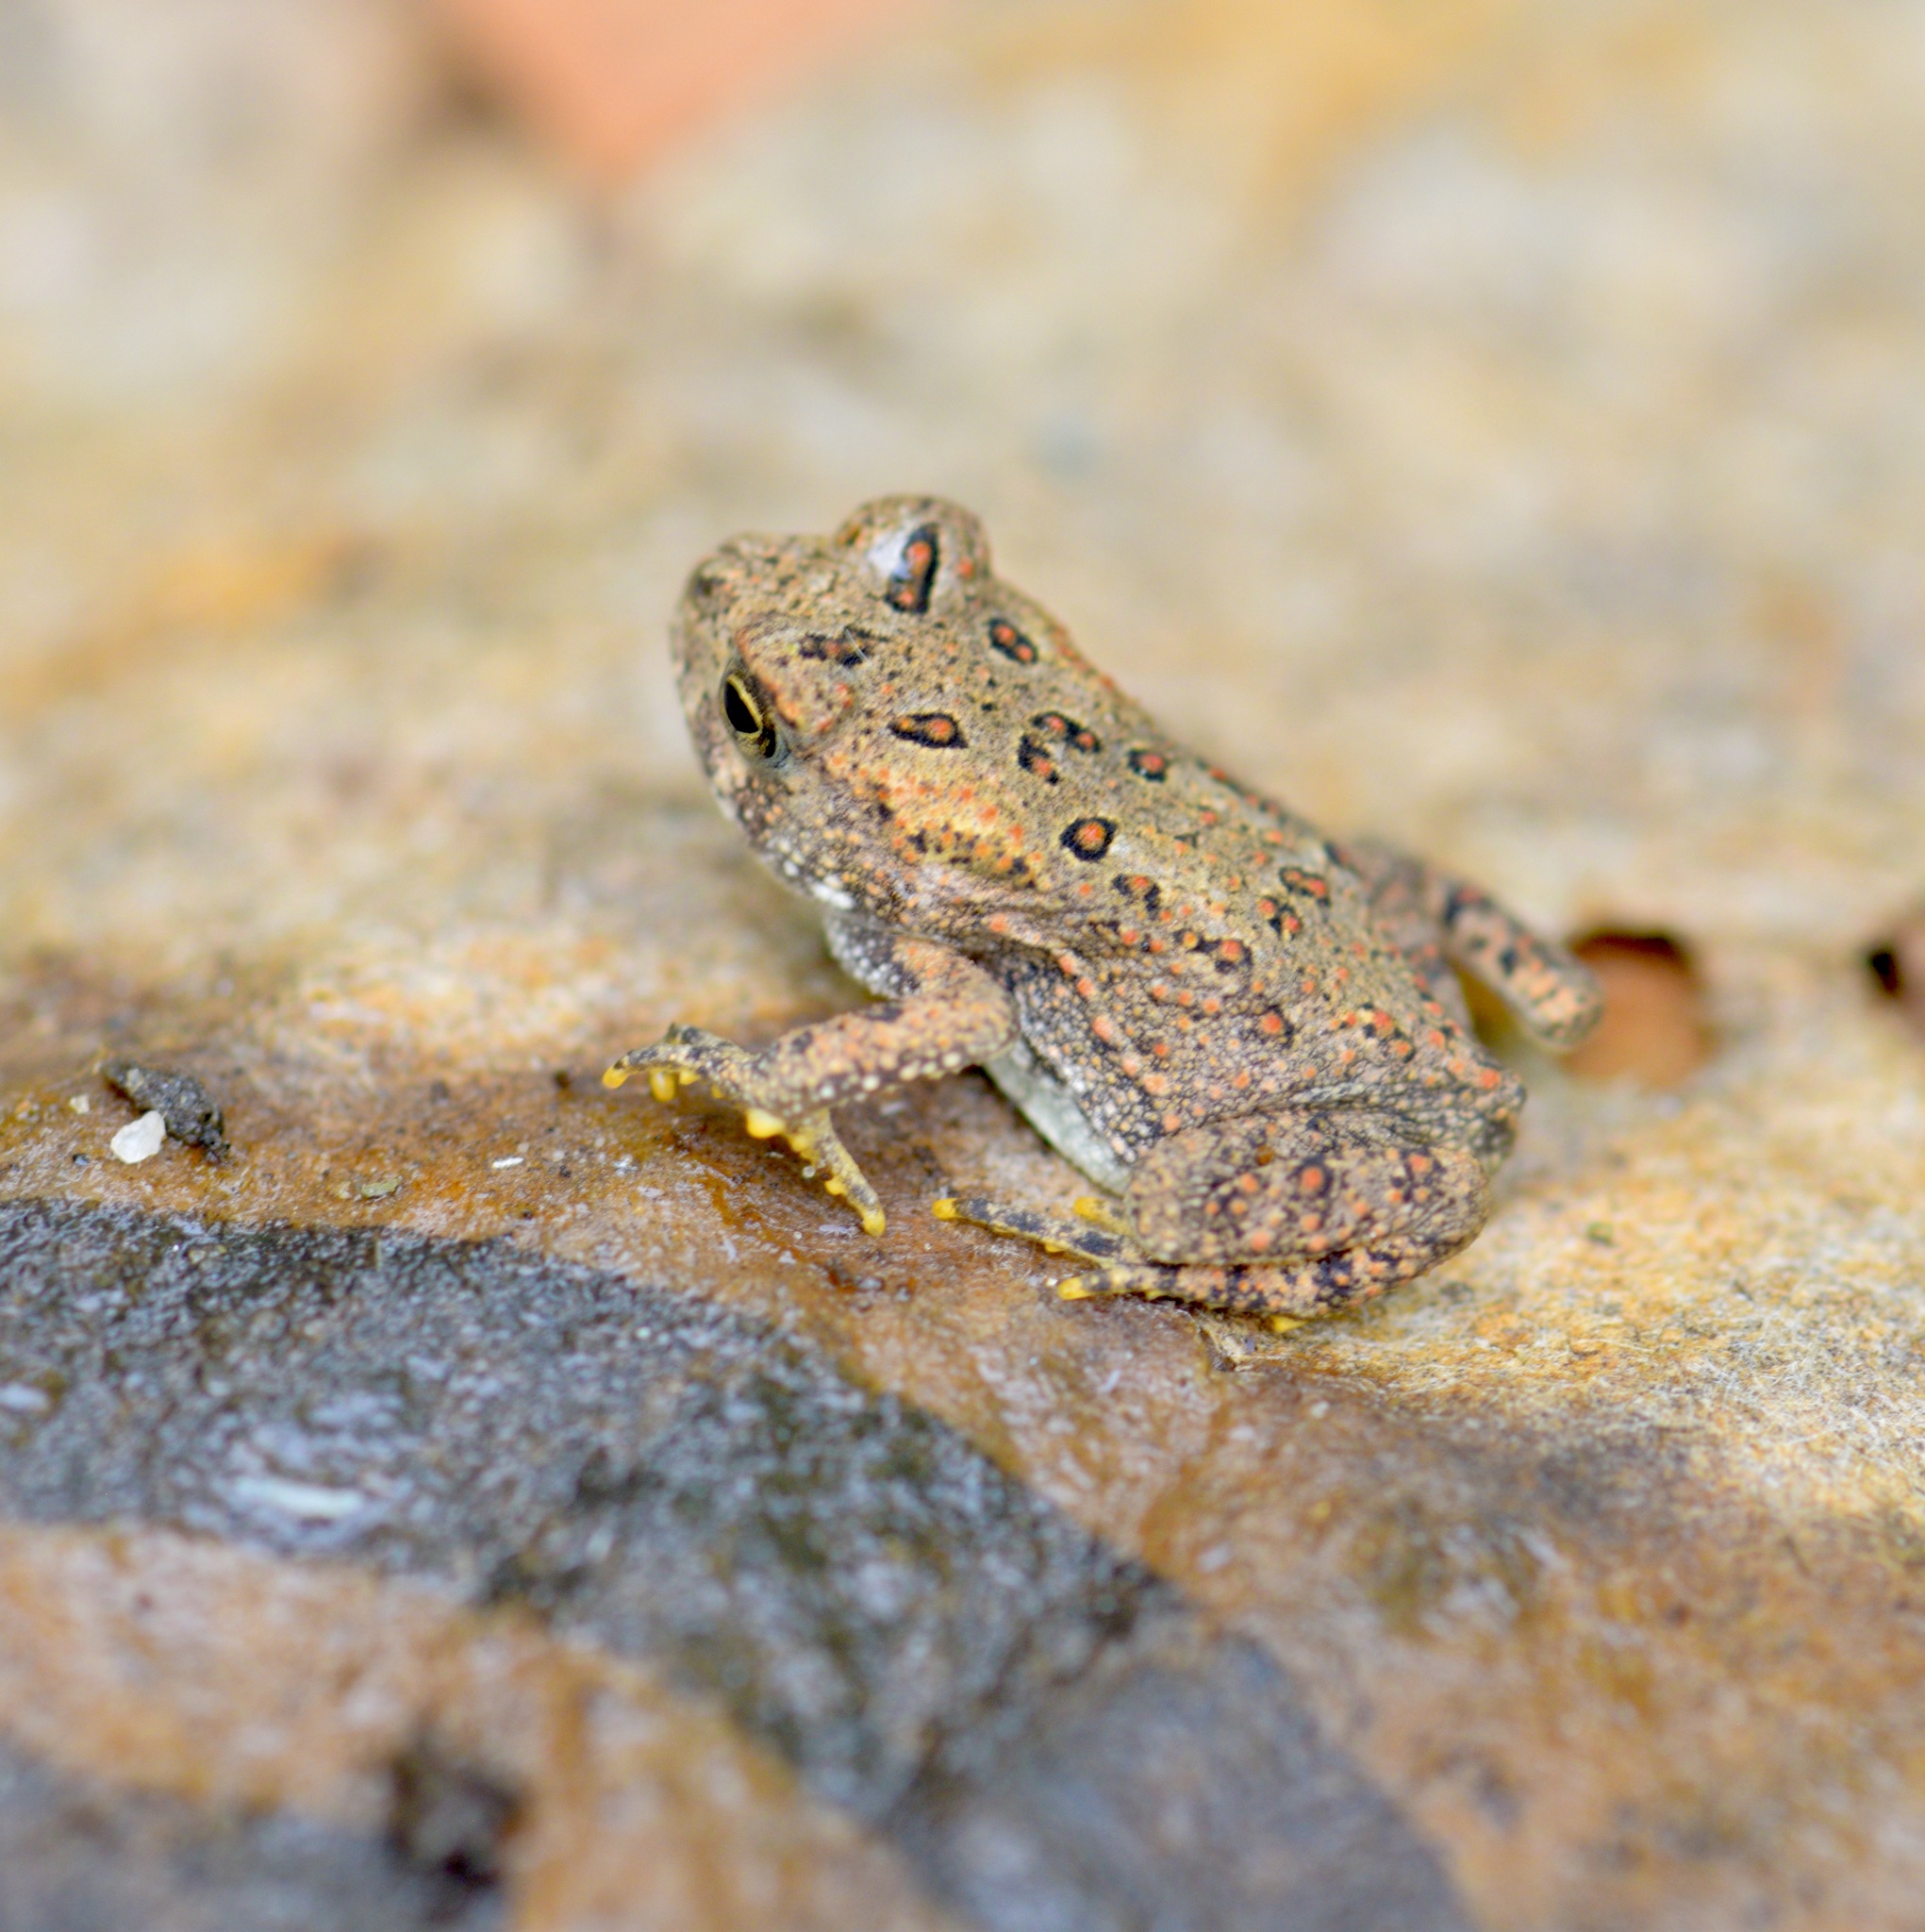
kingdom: Animalia
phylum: Chordata
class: Amphibia
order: Anura
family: Bufonidae
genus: Anaxyrus
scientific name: Anaxyrus americanus
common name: American toad
